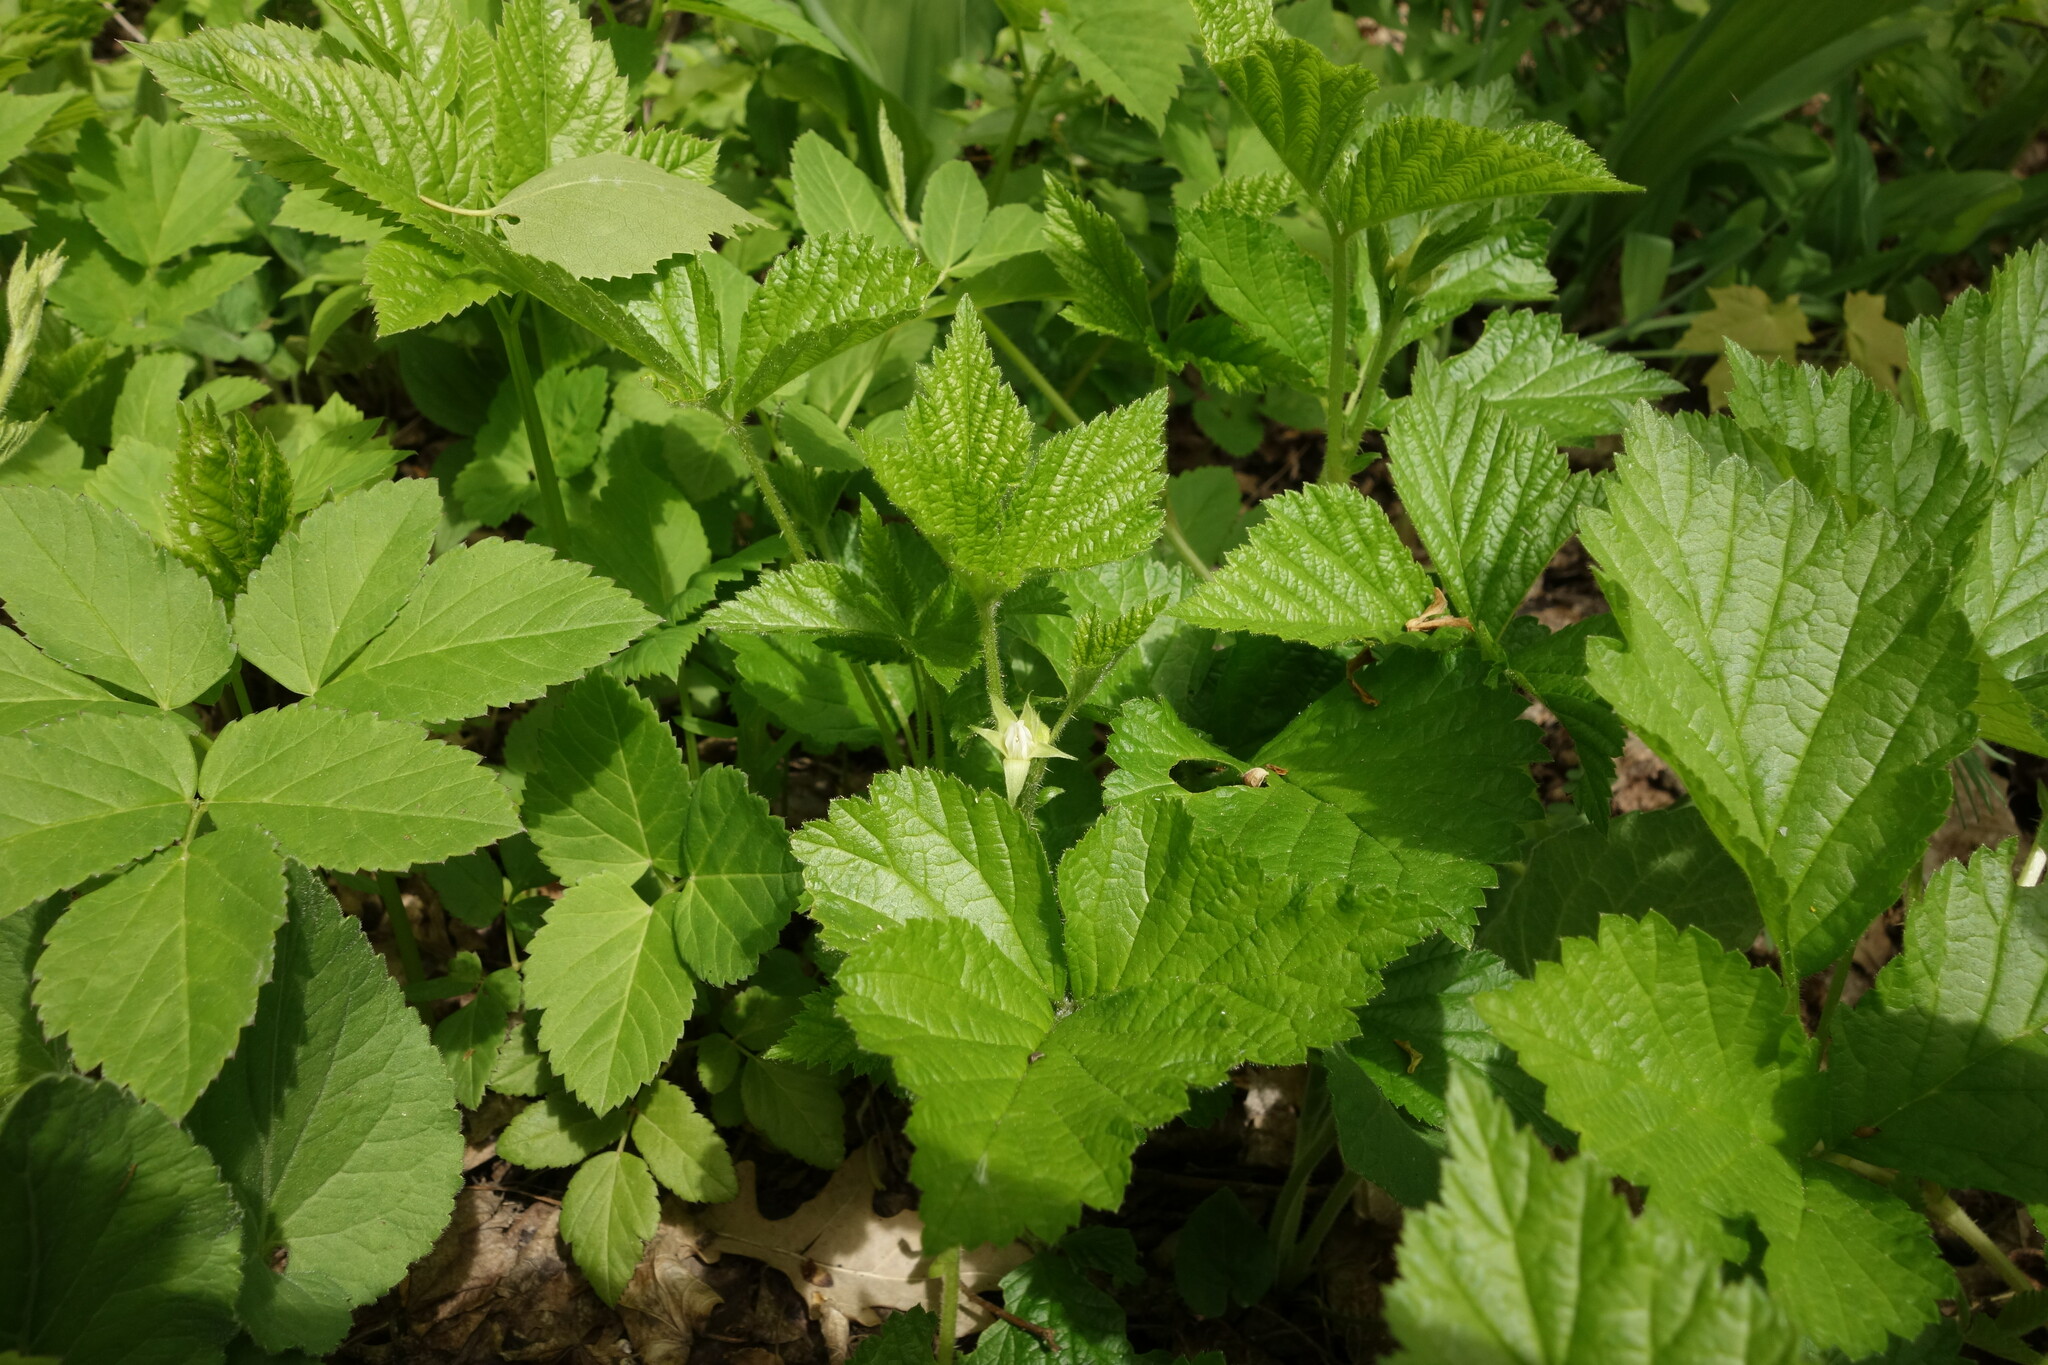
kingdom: Plantae
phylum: Tracheophyta
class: Magnoliopsida
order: Rosales
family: Rosaceae
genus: Rubus
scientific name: Rubus saxatilis
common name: Stone bramble
